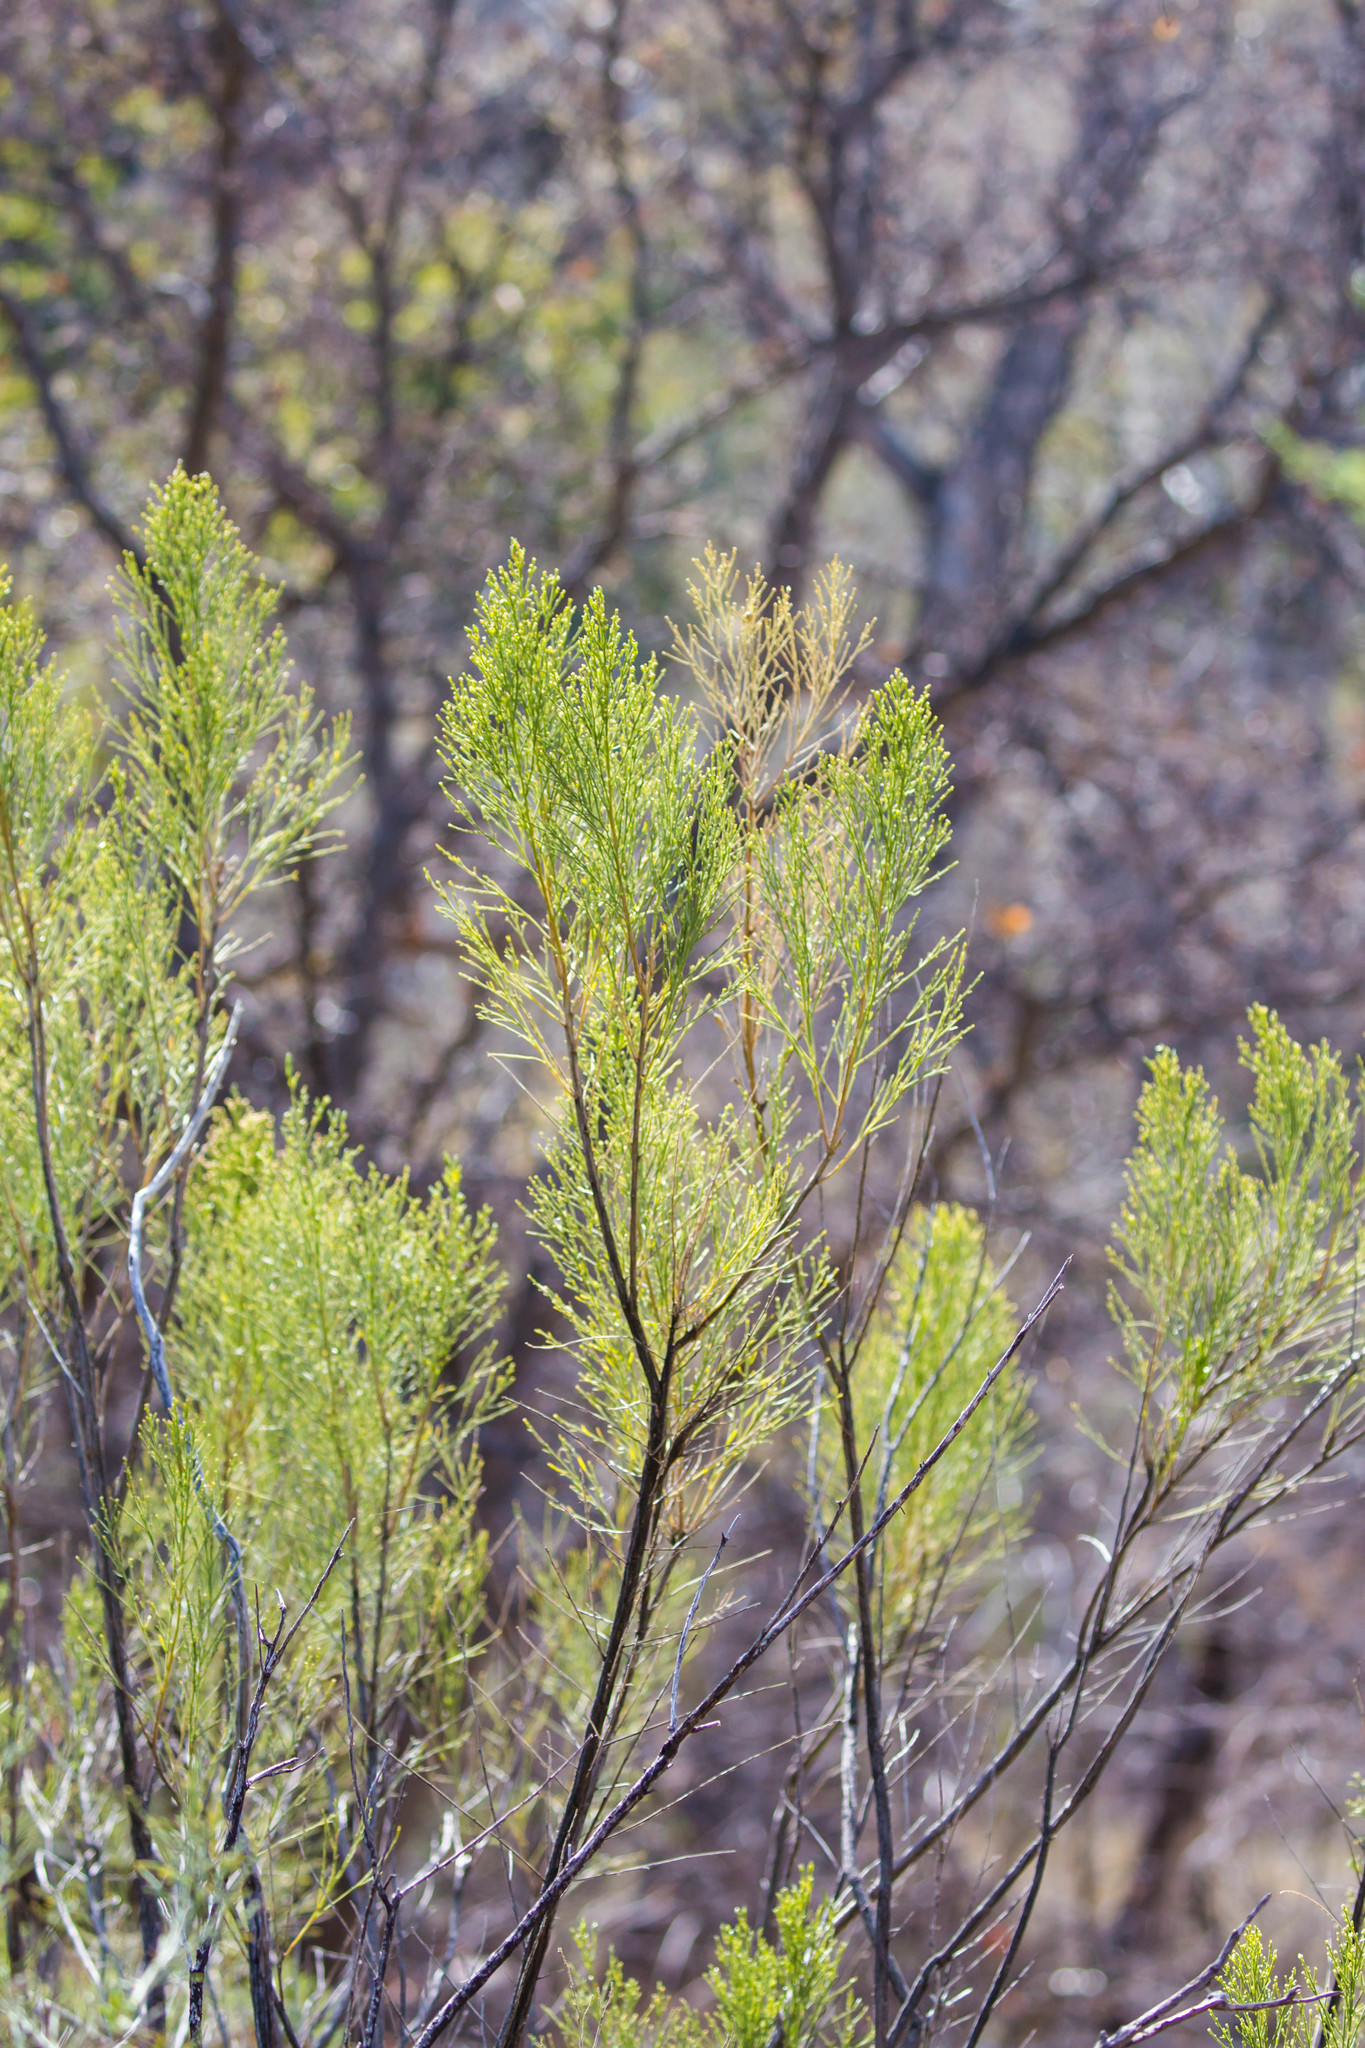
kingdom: Plantae
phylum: Tracheophyta
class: Magnoliopsida
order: Asterales
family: Asteraceae
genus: Baccharis
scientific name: Baccharis sarothroides
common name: Desert-broom
